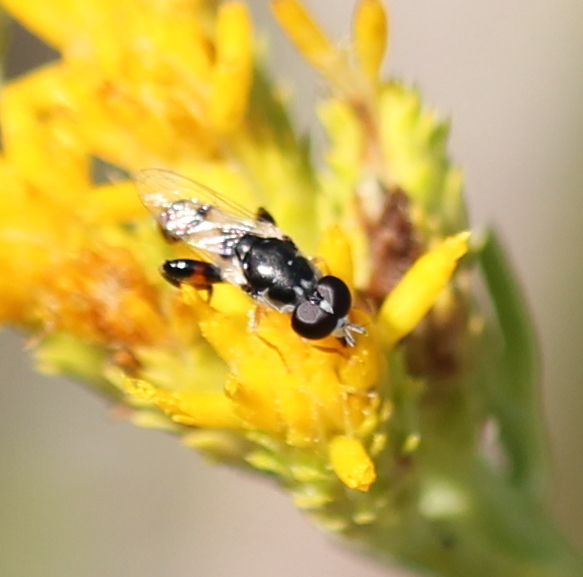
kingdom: Animalia
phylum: Arthropoda
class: Insecta
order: Diptera
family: Syrphidae
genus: Syritta
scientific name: Syritta flaviventris
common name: Syrphid fly
